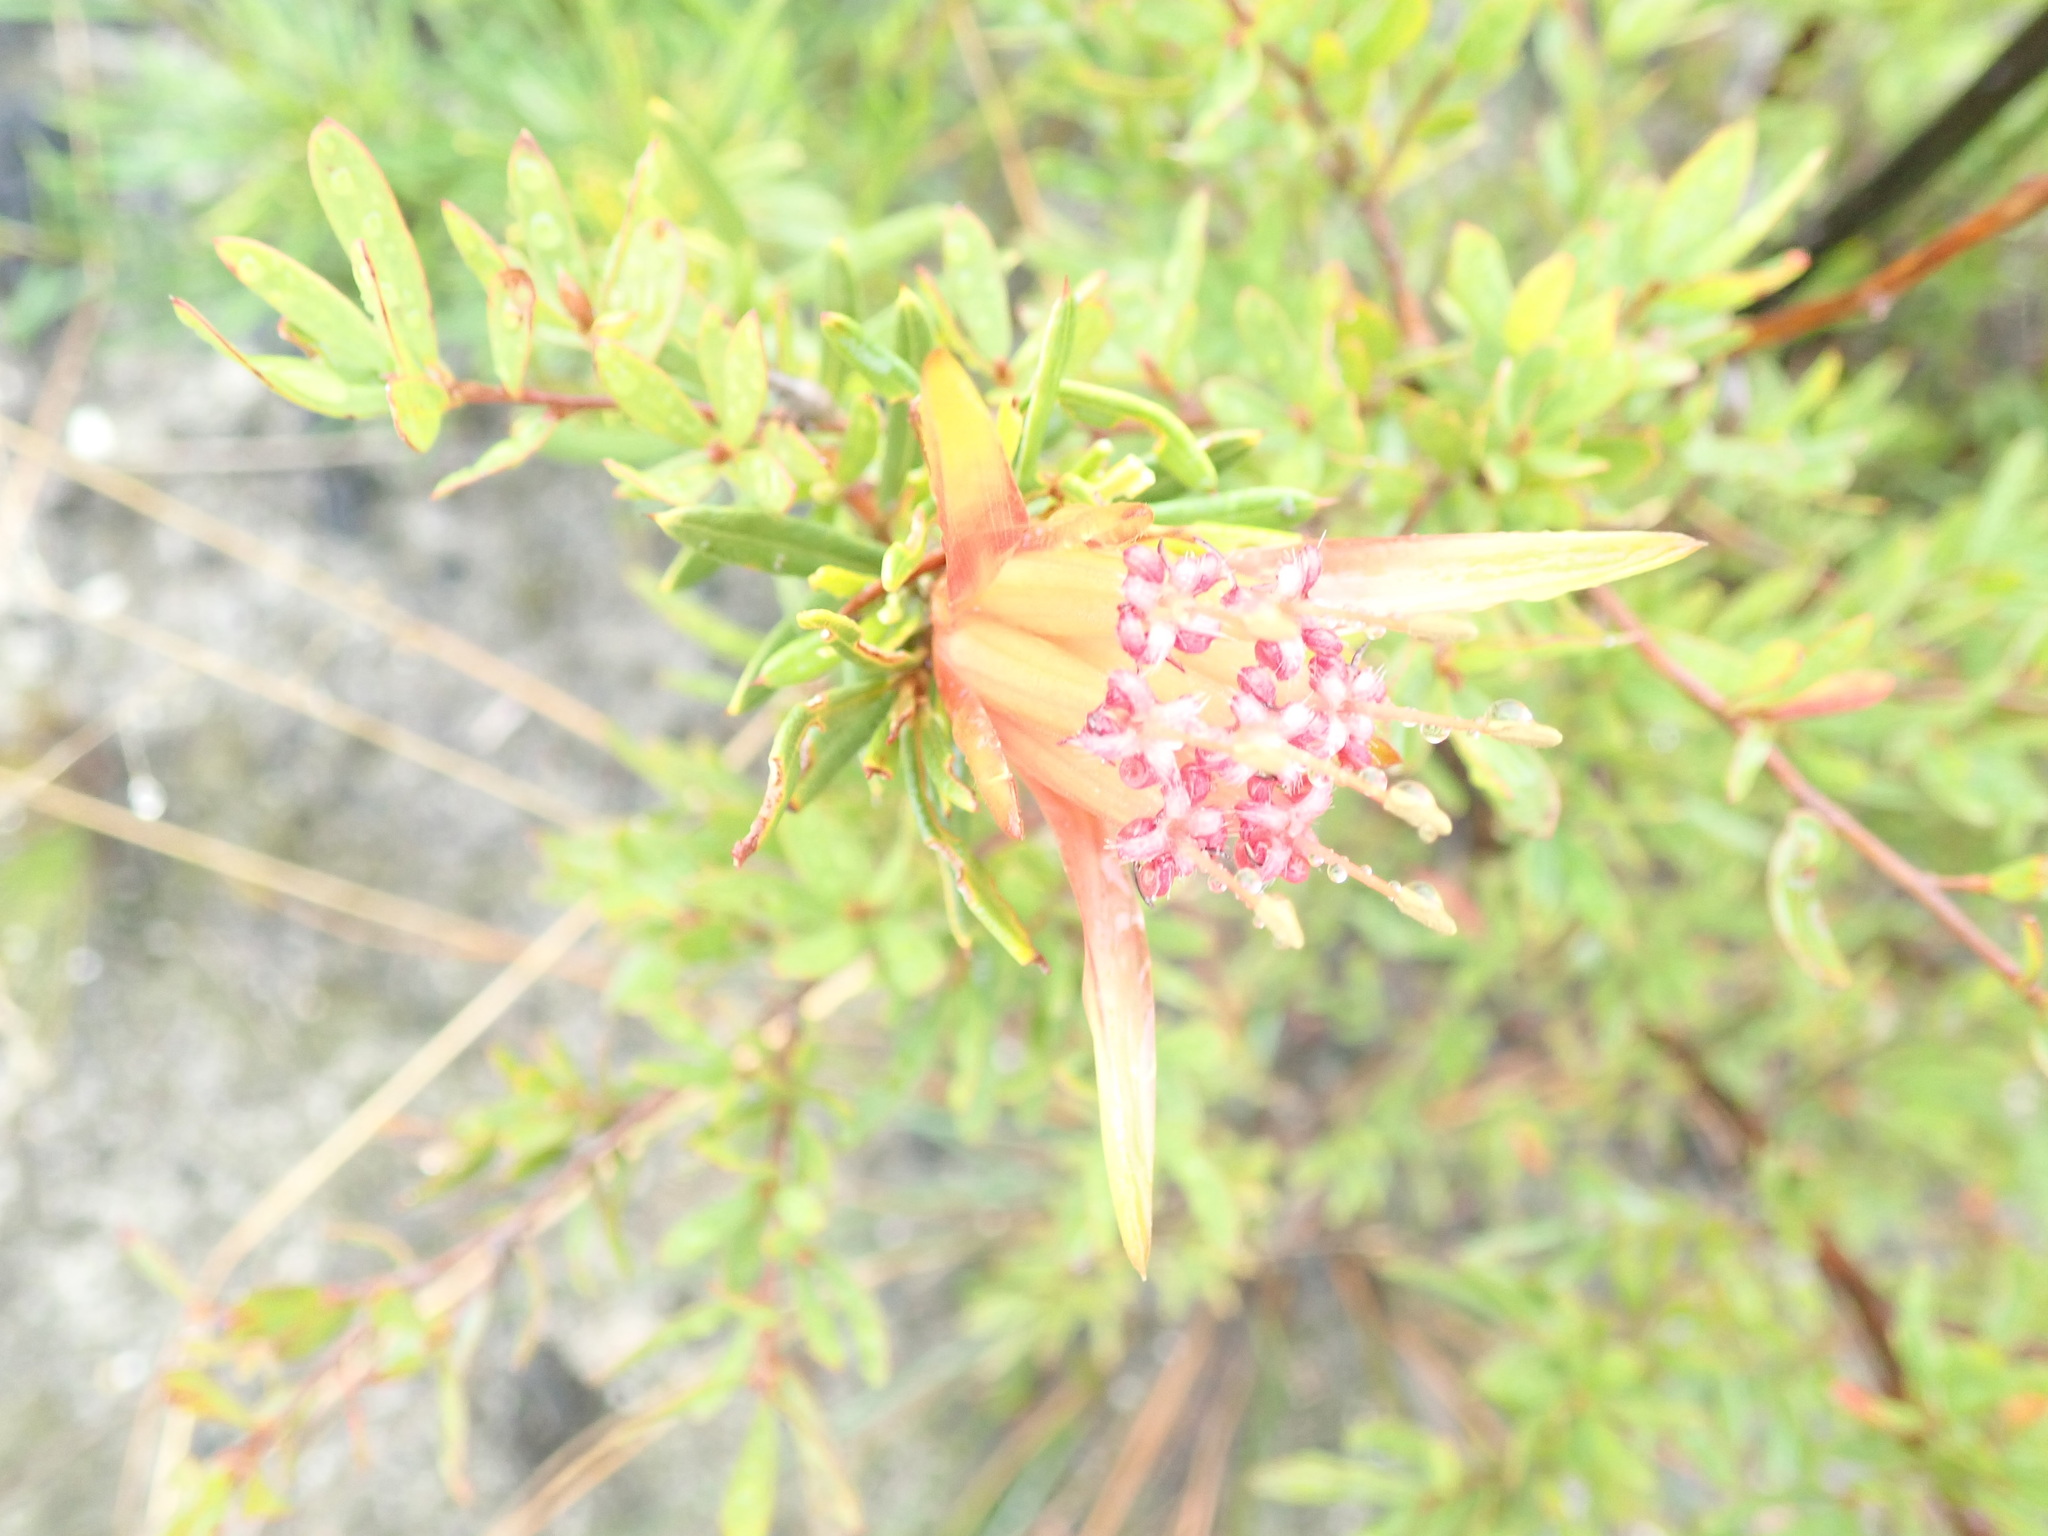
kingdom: Plantae
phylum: Tracheophyta
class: Magnoliopsida
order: Proteales
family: Proteaceae
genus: Lambertia
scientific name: Lambertia formosa
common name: Mountain-devil
